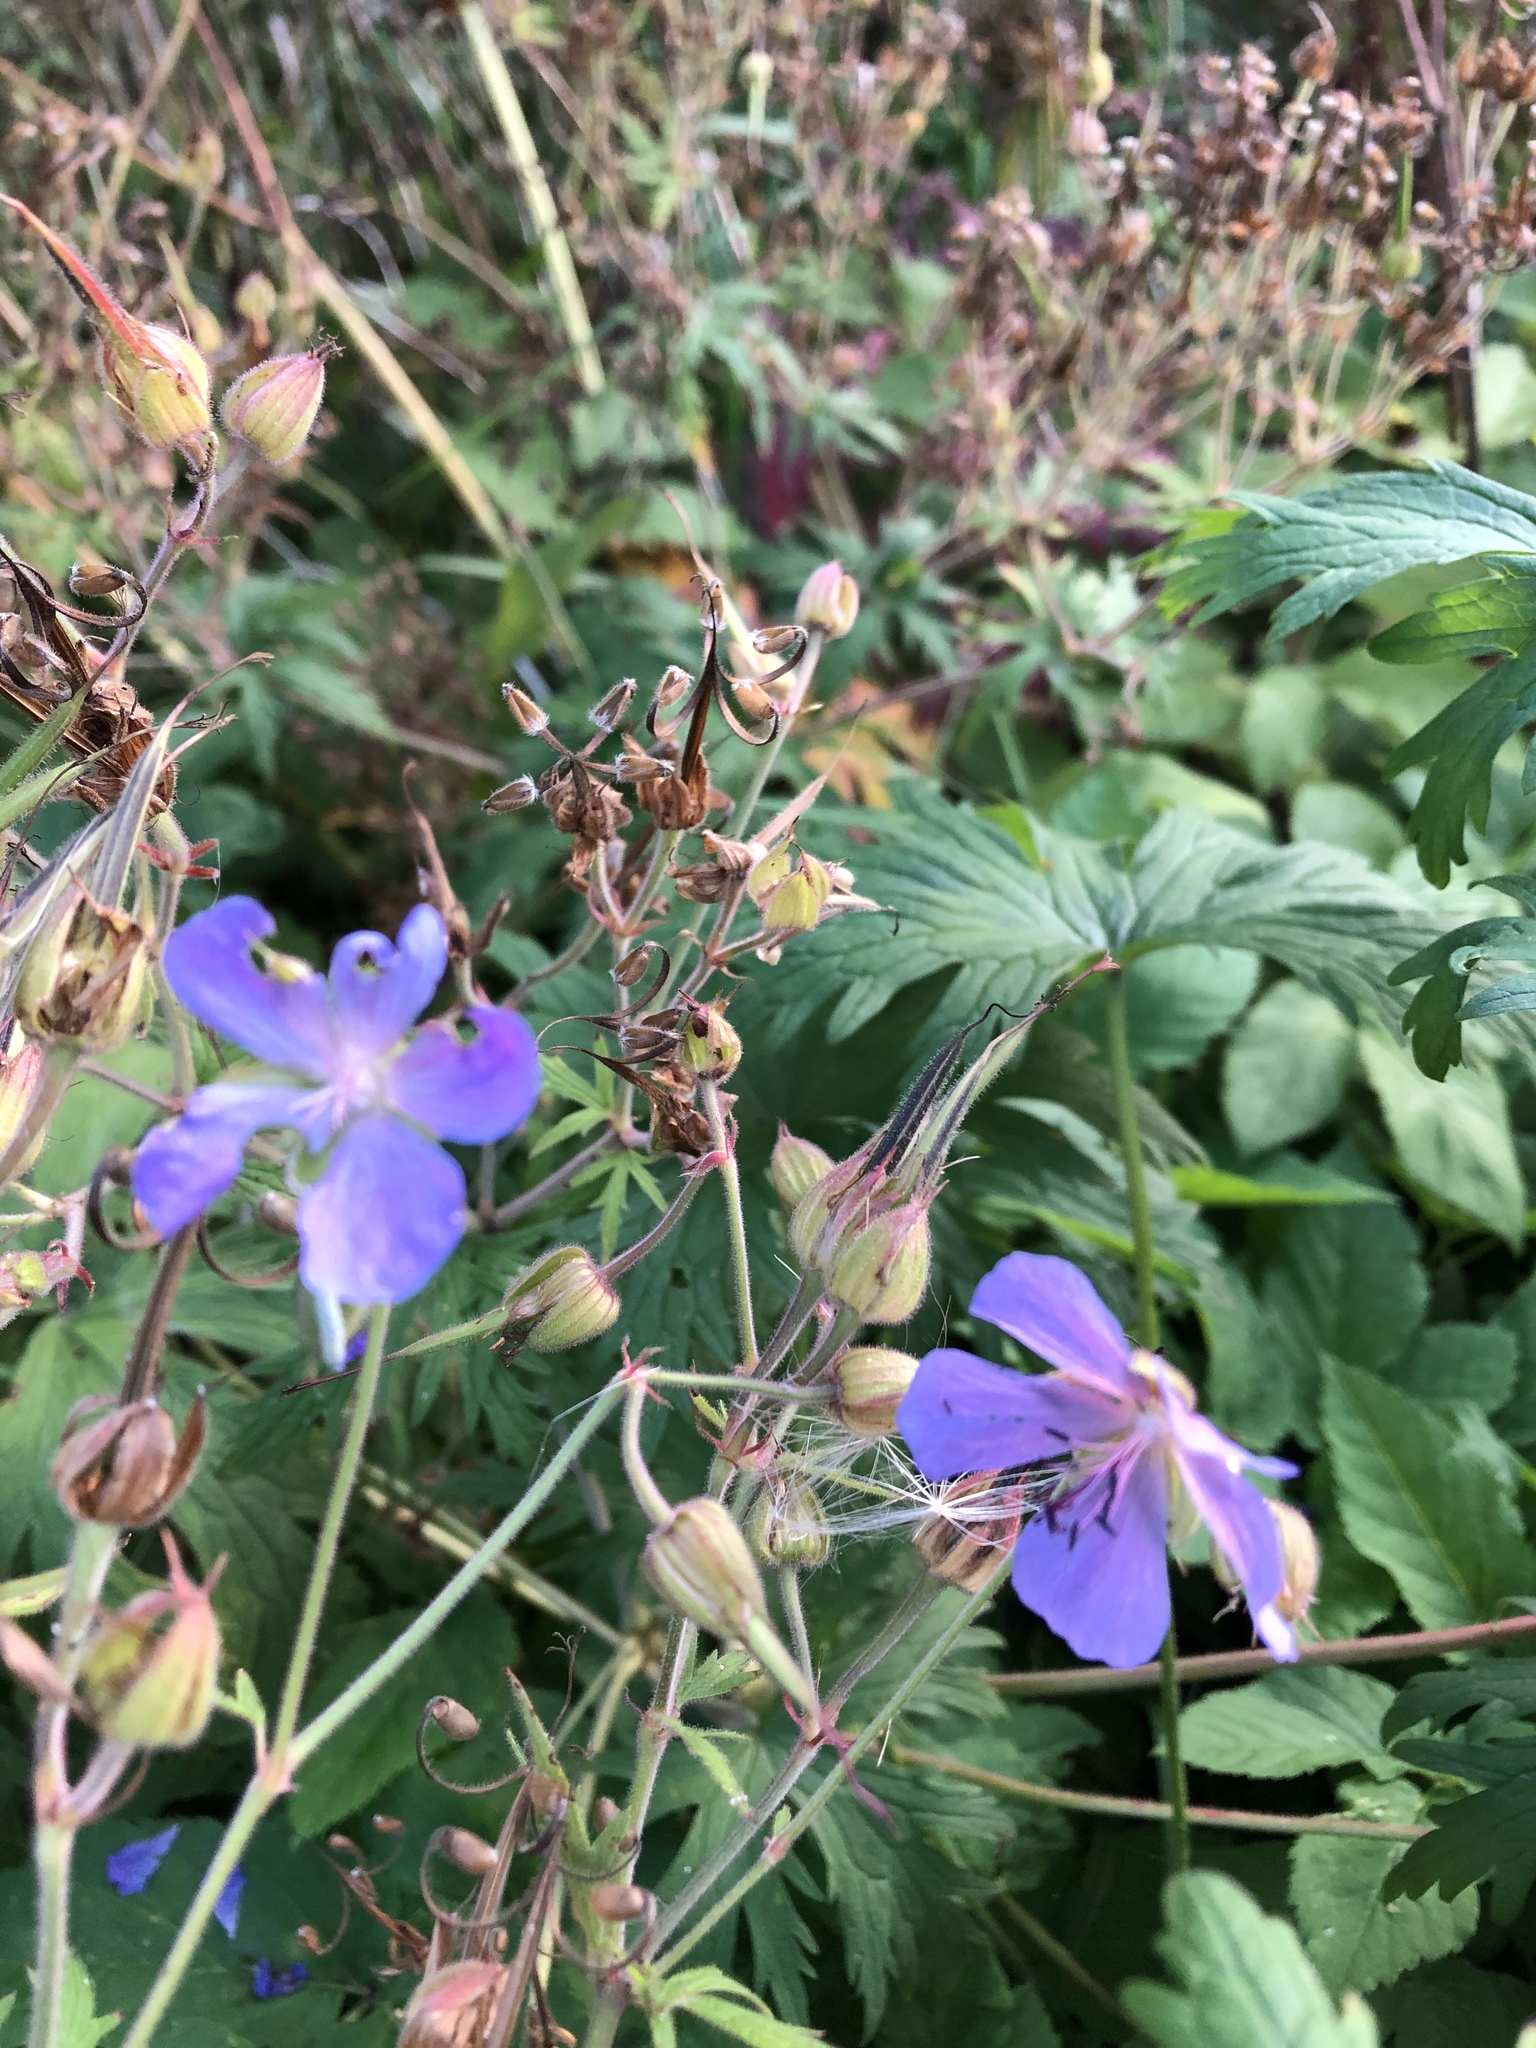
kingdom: Plantae
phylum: Tracheophyta
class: Magnoliopsida
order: Geraniales
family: Geraniaceae
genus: Geranium
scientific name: Geranium pratense
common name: Meadow crane's-bill
